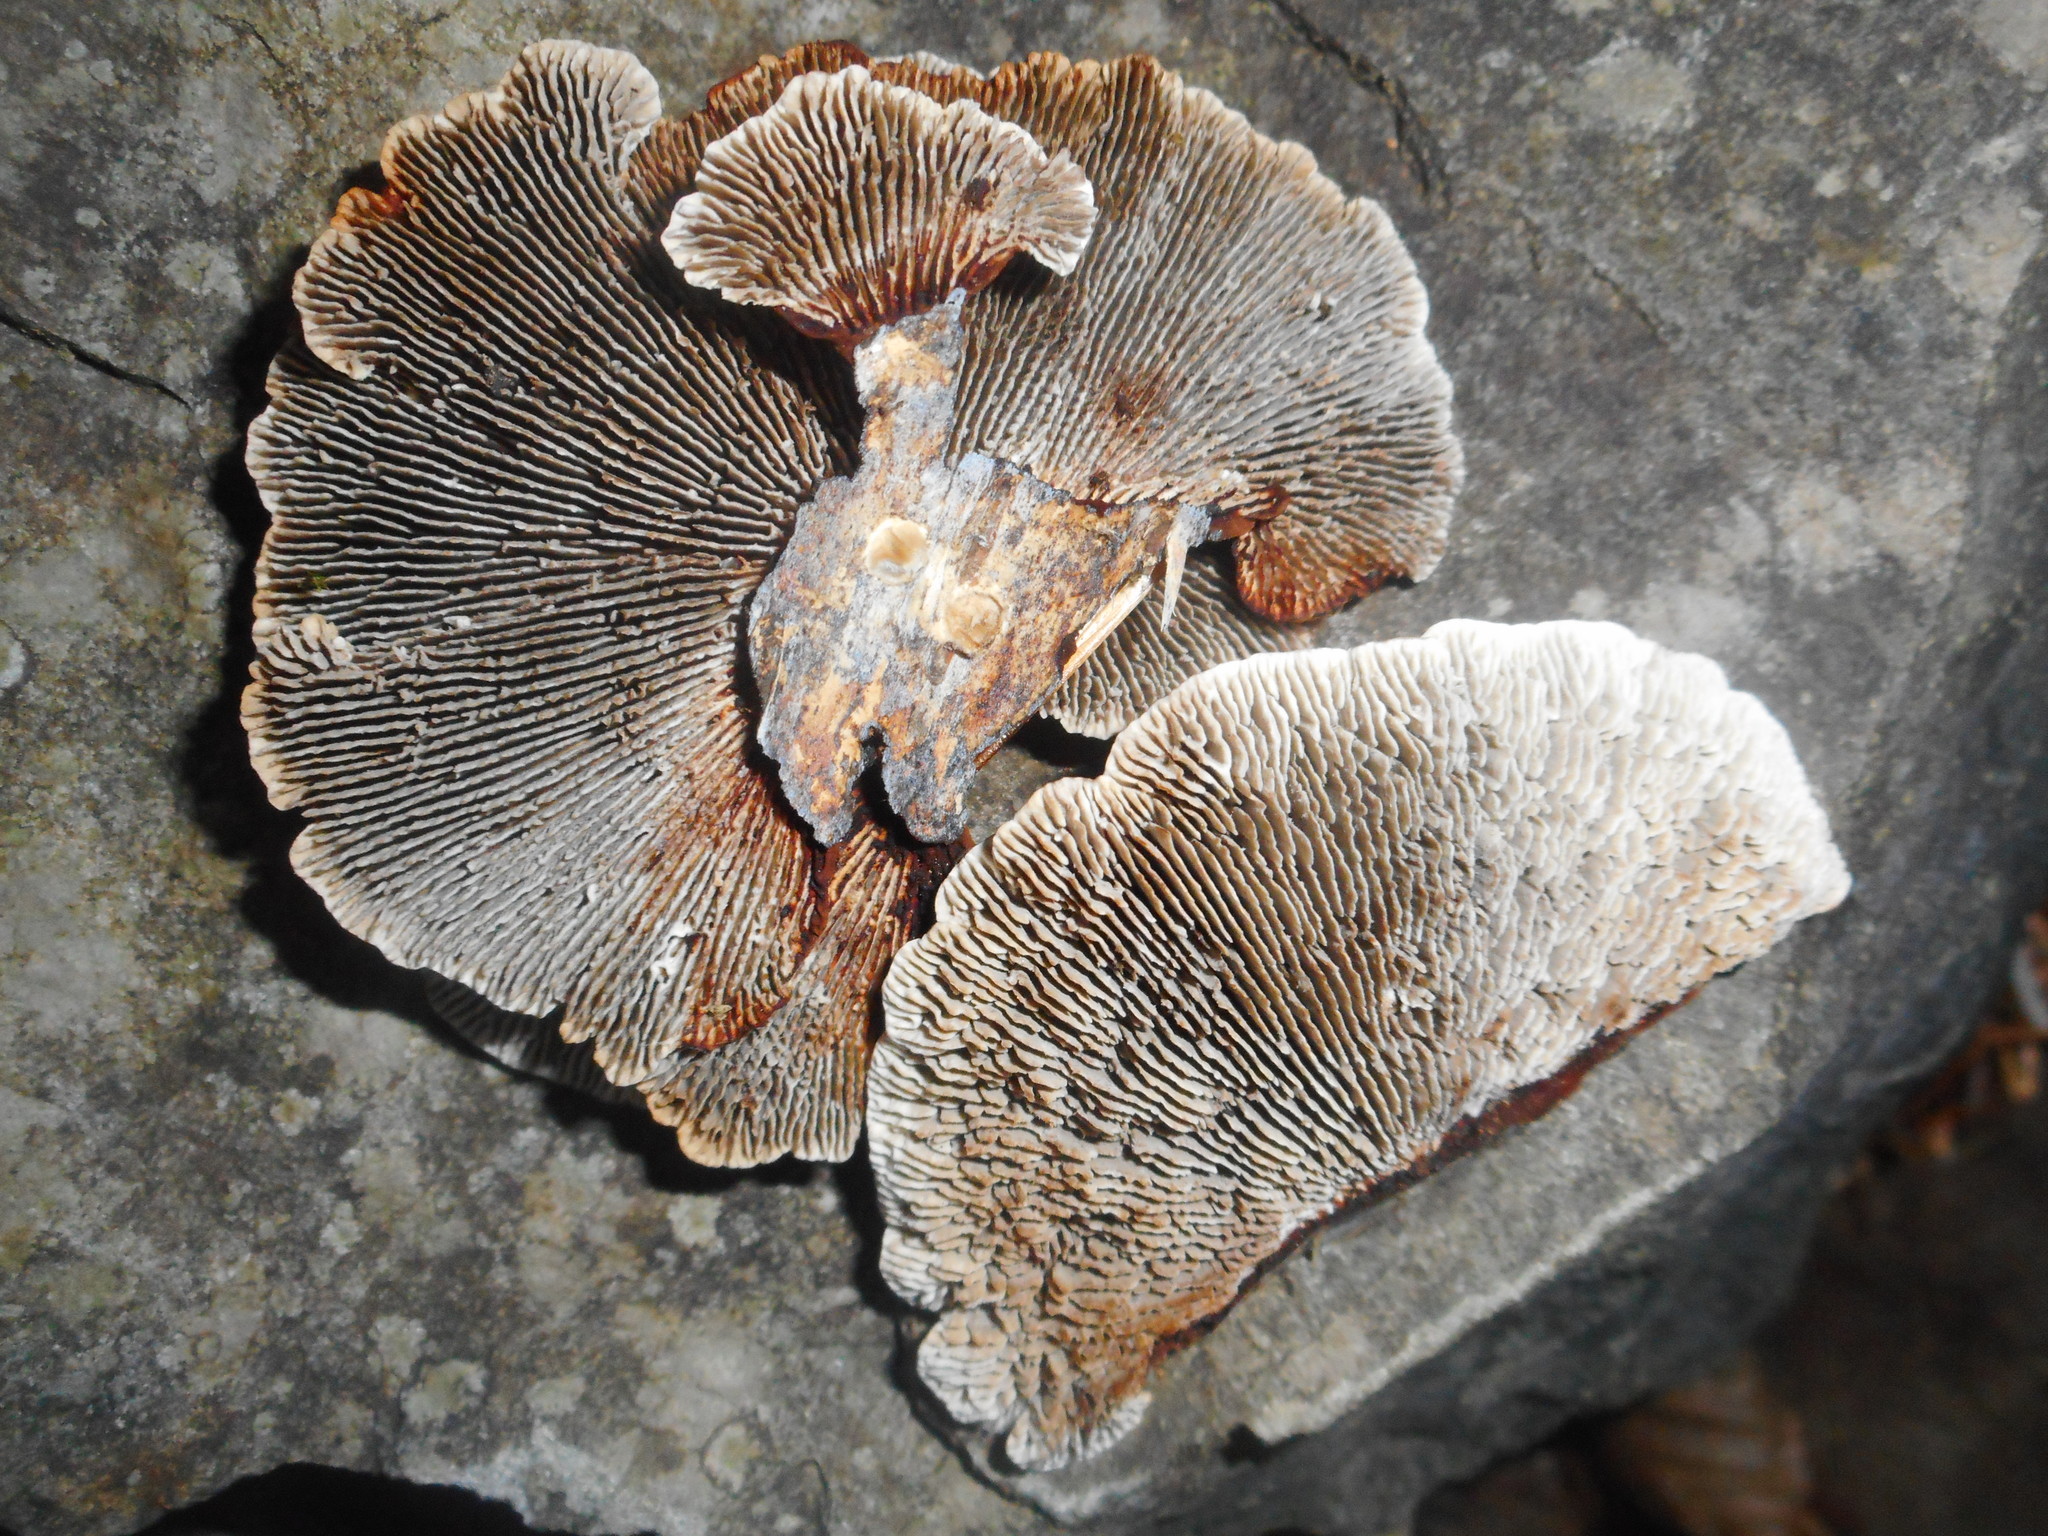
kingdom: Fungi
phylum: Basidiomycota
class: Agaricomycetes
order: Polyporales
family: Polyporaceae
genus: Daedaleopsis
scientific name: Daedaleopsis tricolor
